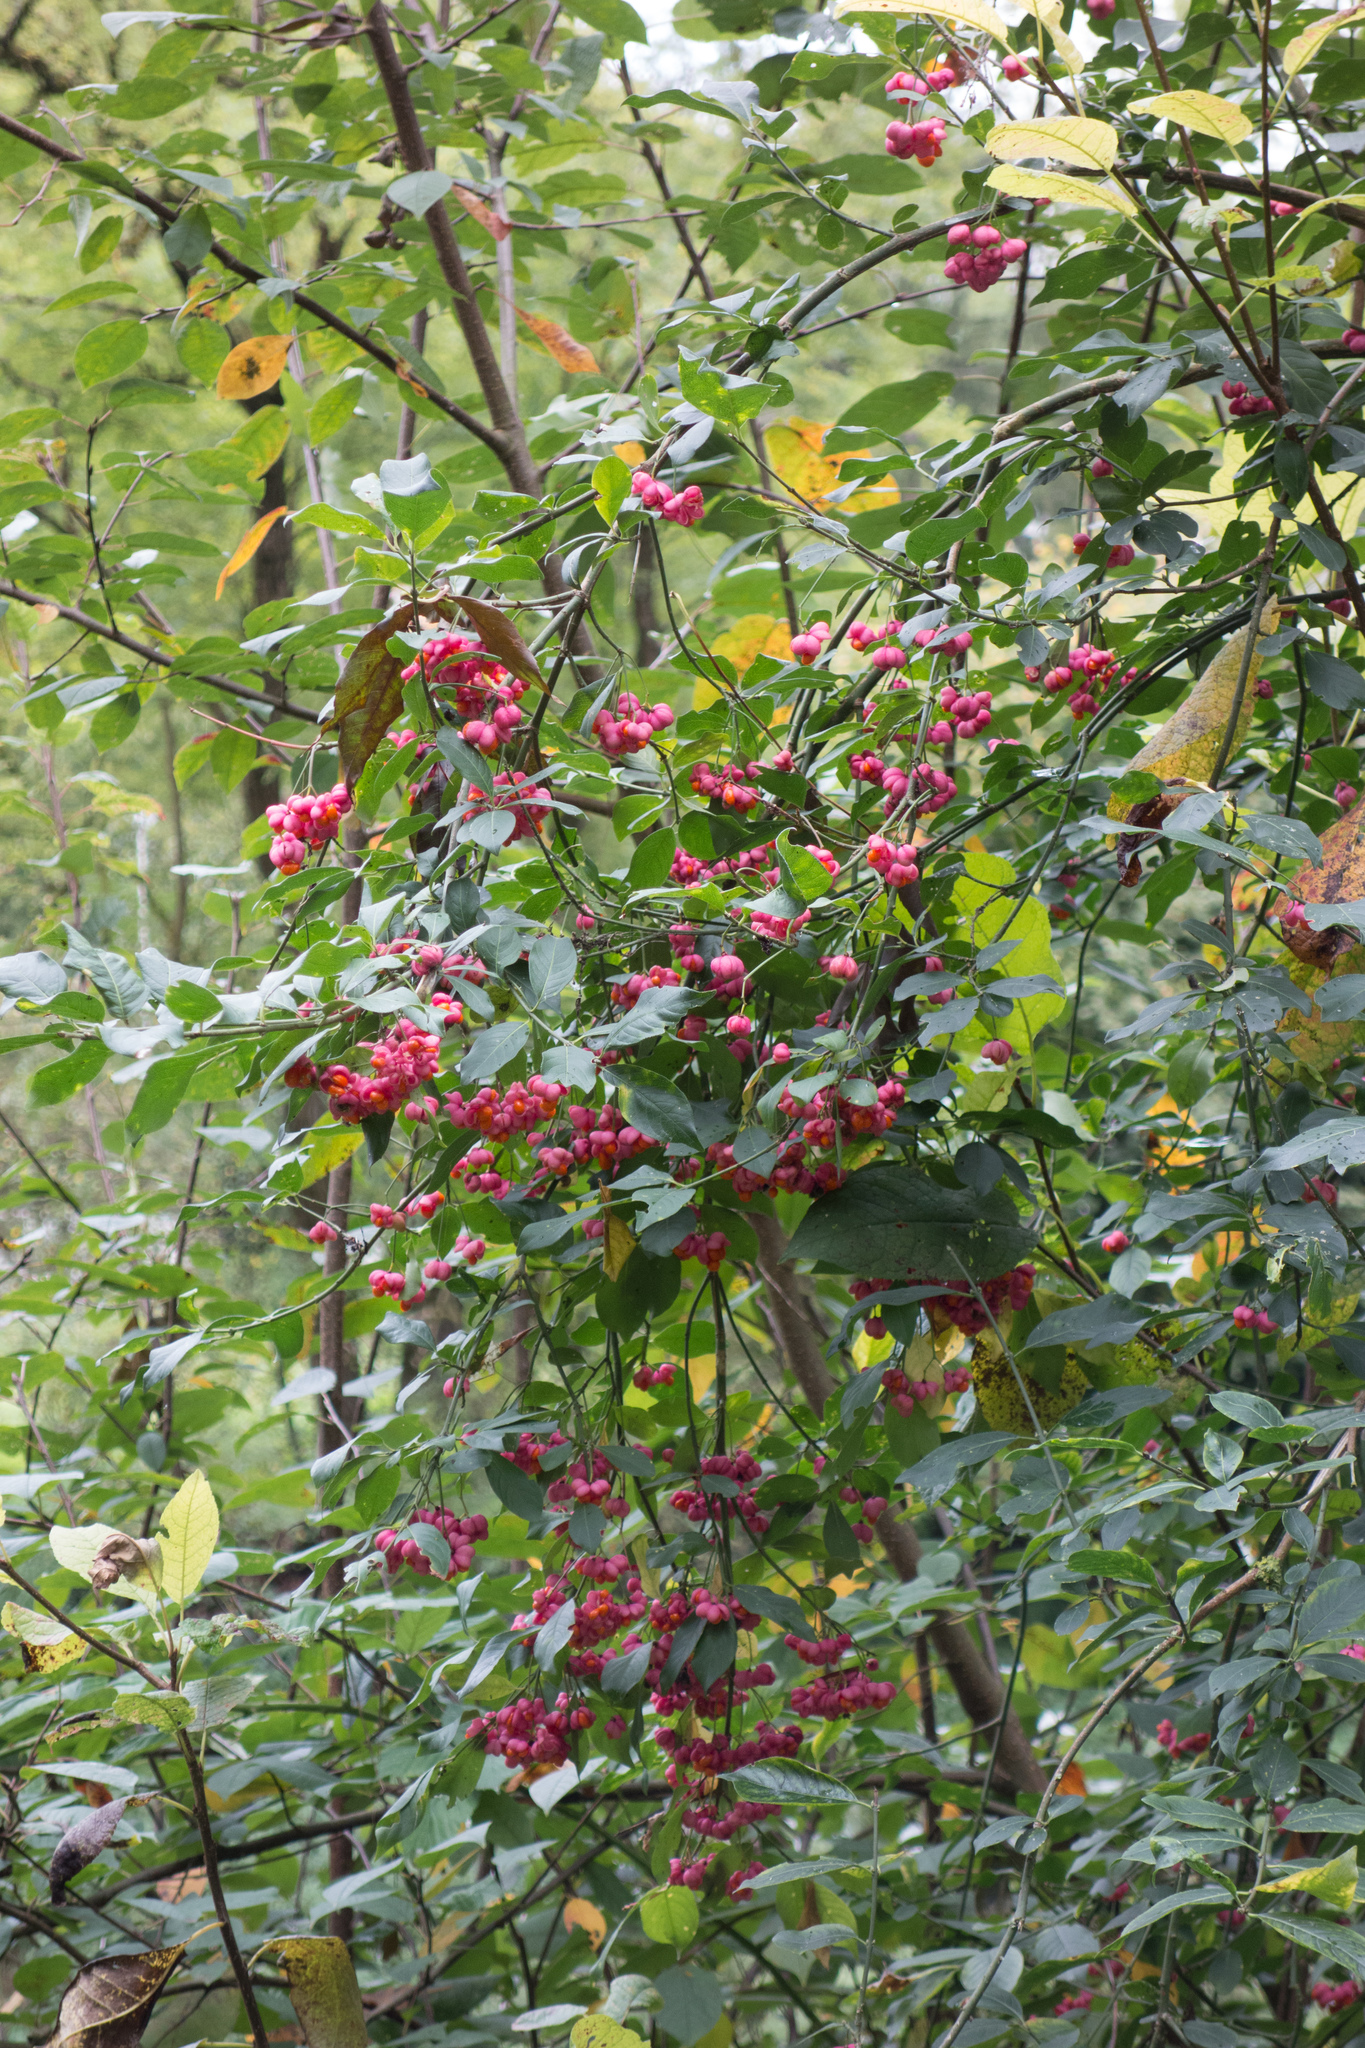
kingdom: Plantae
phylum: Tracheophyta
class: Magnoliopsida
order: Celastrales
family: Celastraceae
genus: Euonymus
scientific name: Euonymus europaeus
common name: Spindle
